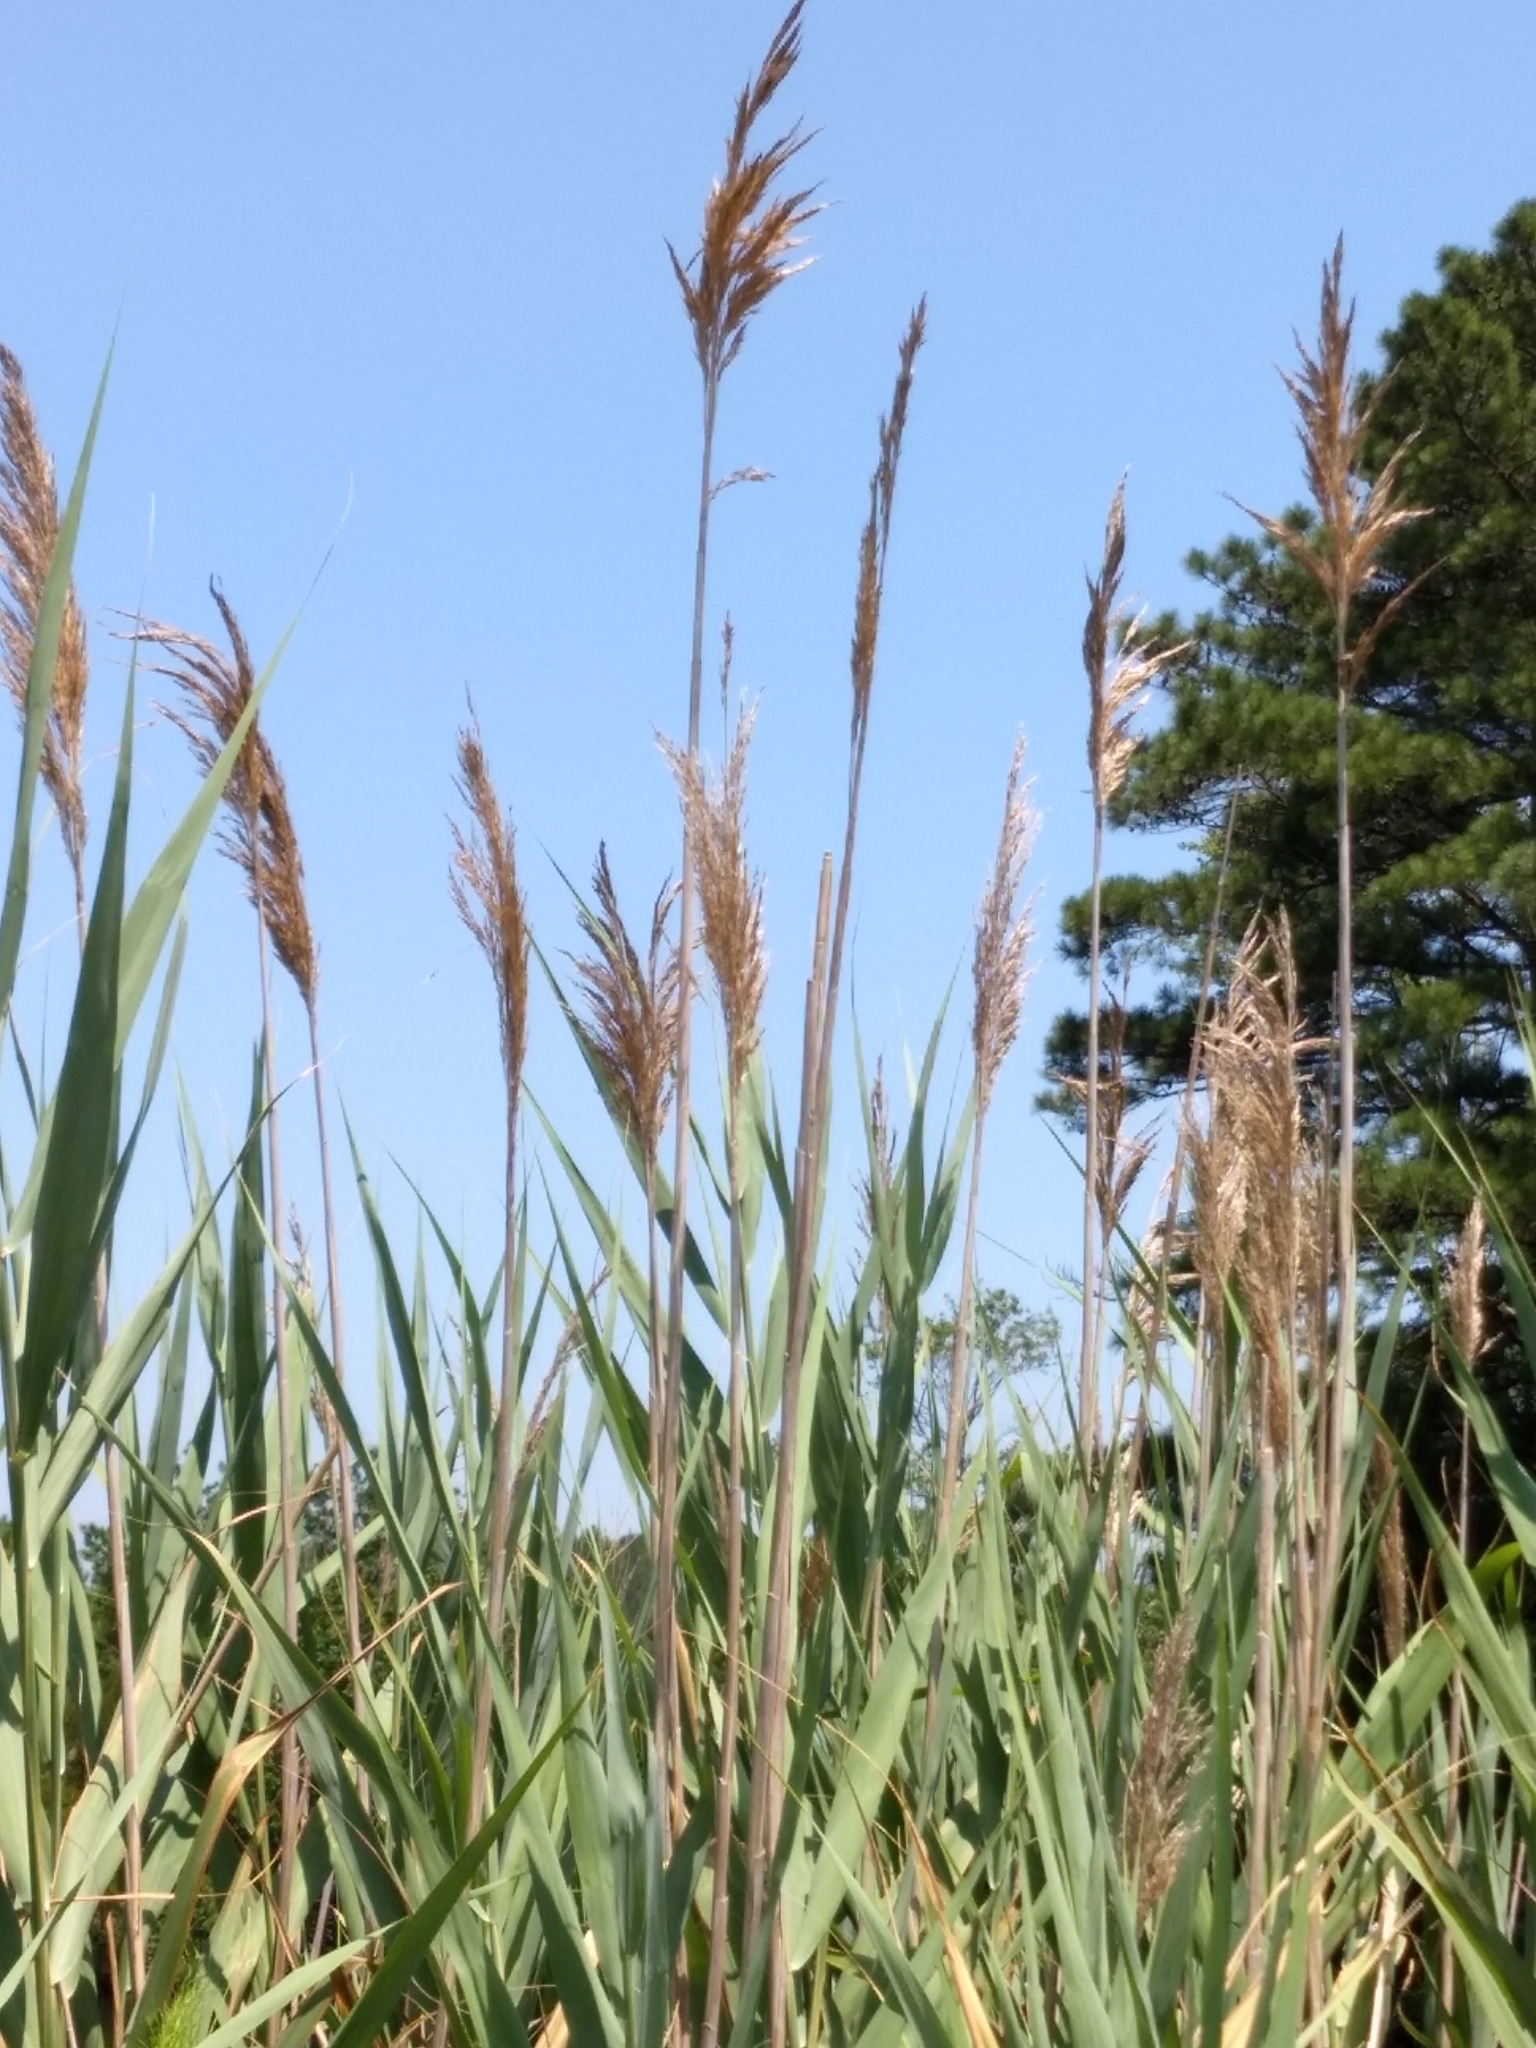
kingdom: Plantae
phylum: Tracheophyta
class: Liliopsida
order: Poales
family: Poaceae
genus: Phragmites
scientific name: Phragmites australis
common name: Common reed
